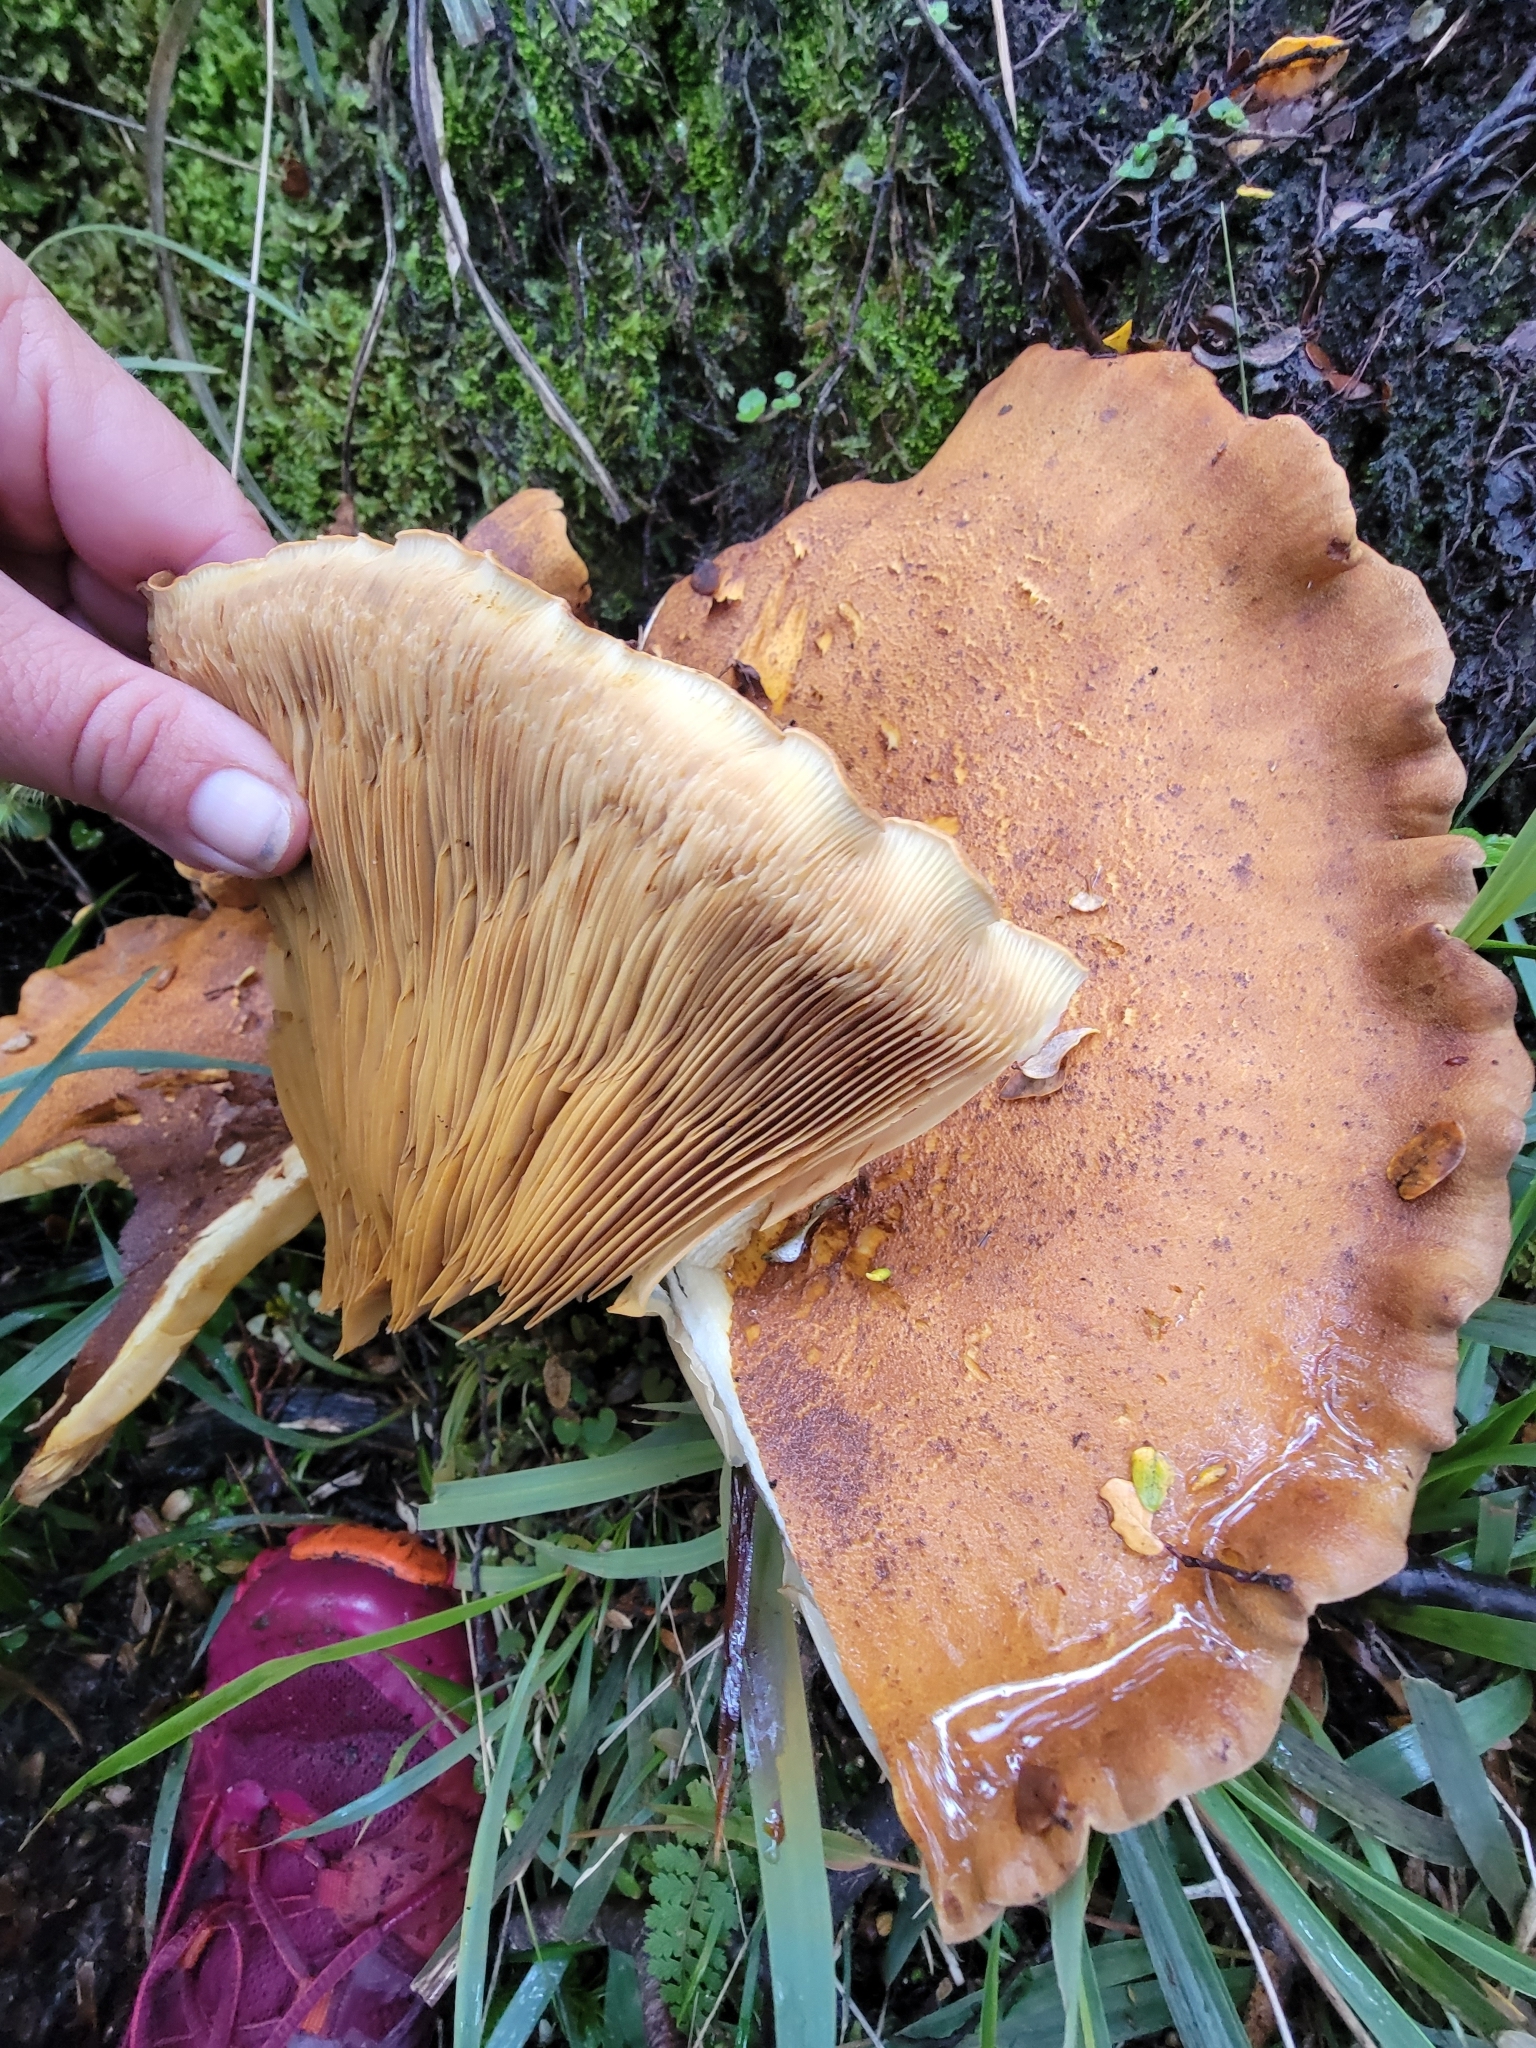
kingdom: Fungi
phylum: Basidiomycota
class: Agaricomycetes
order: Boletales
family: Serpulaceae
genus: Austropaxillus
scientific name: Austropaxillus nothofagi
